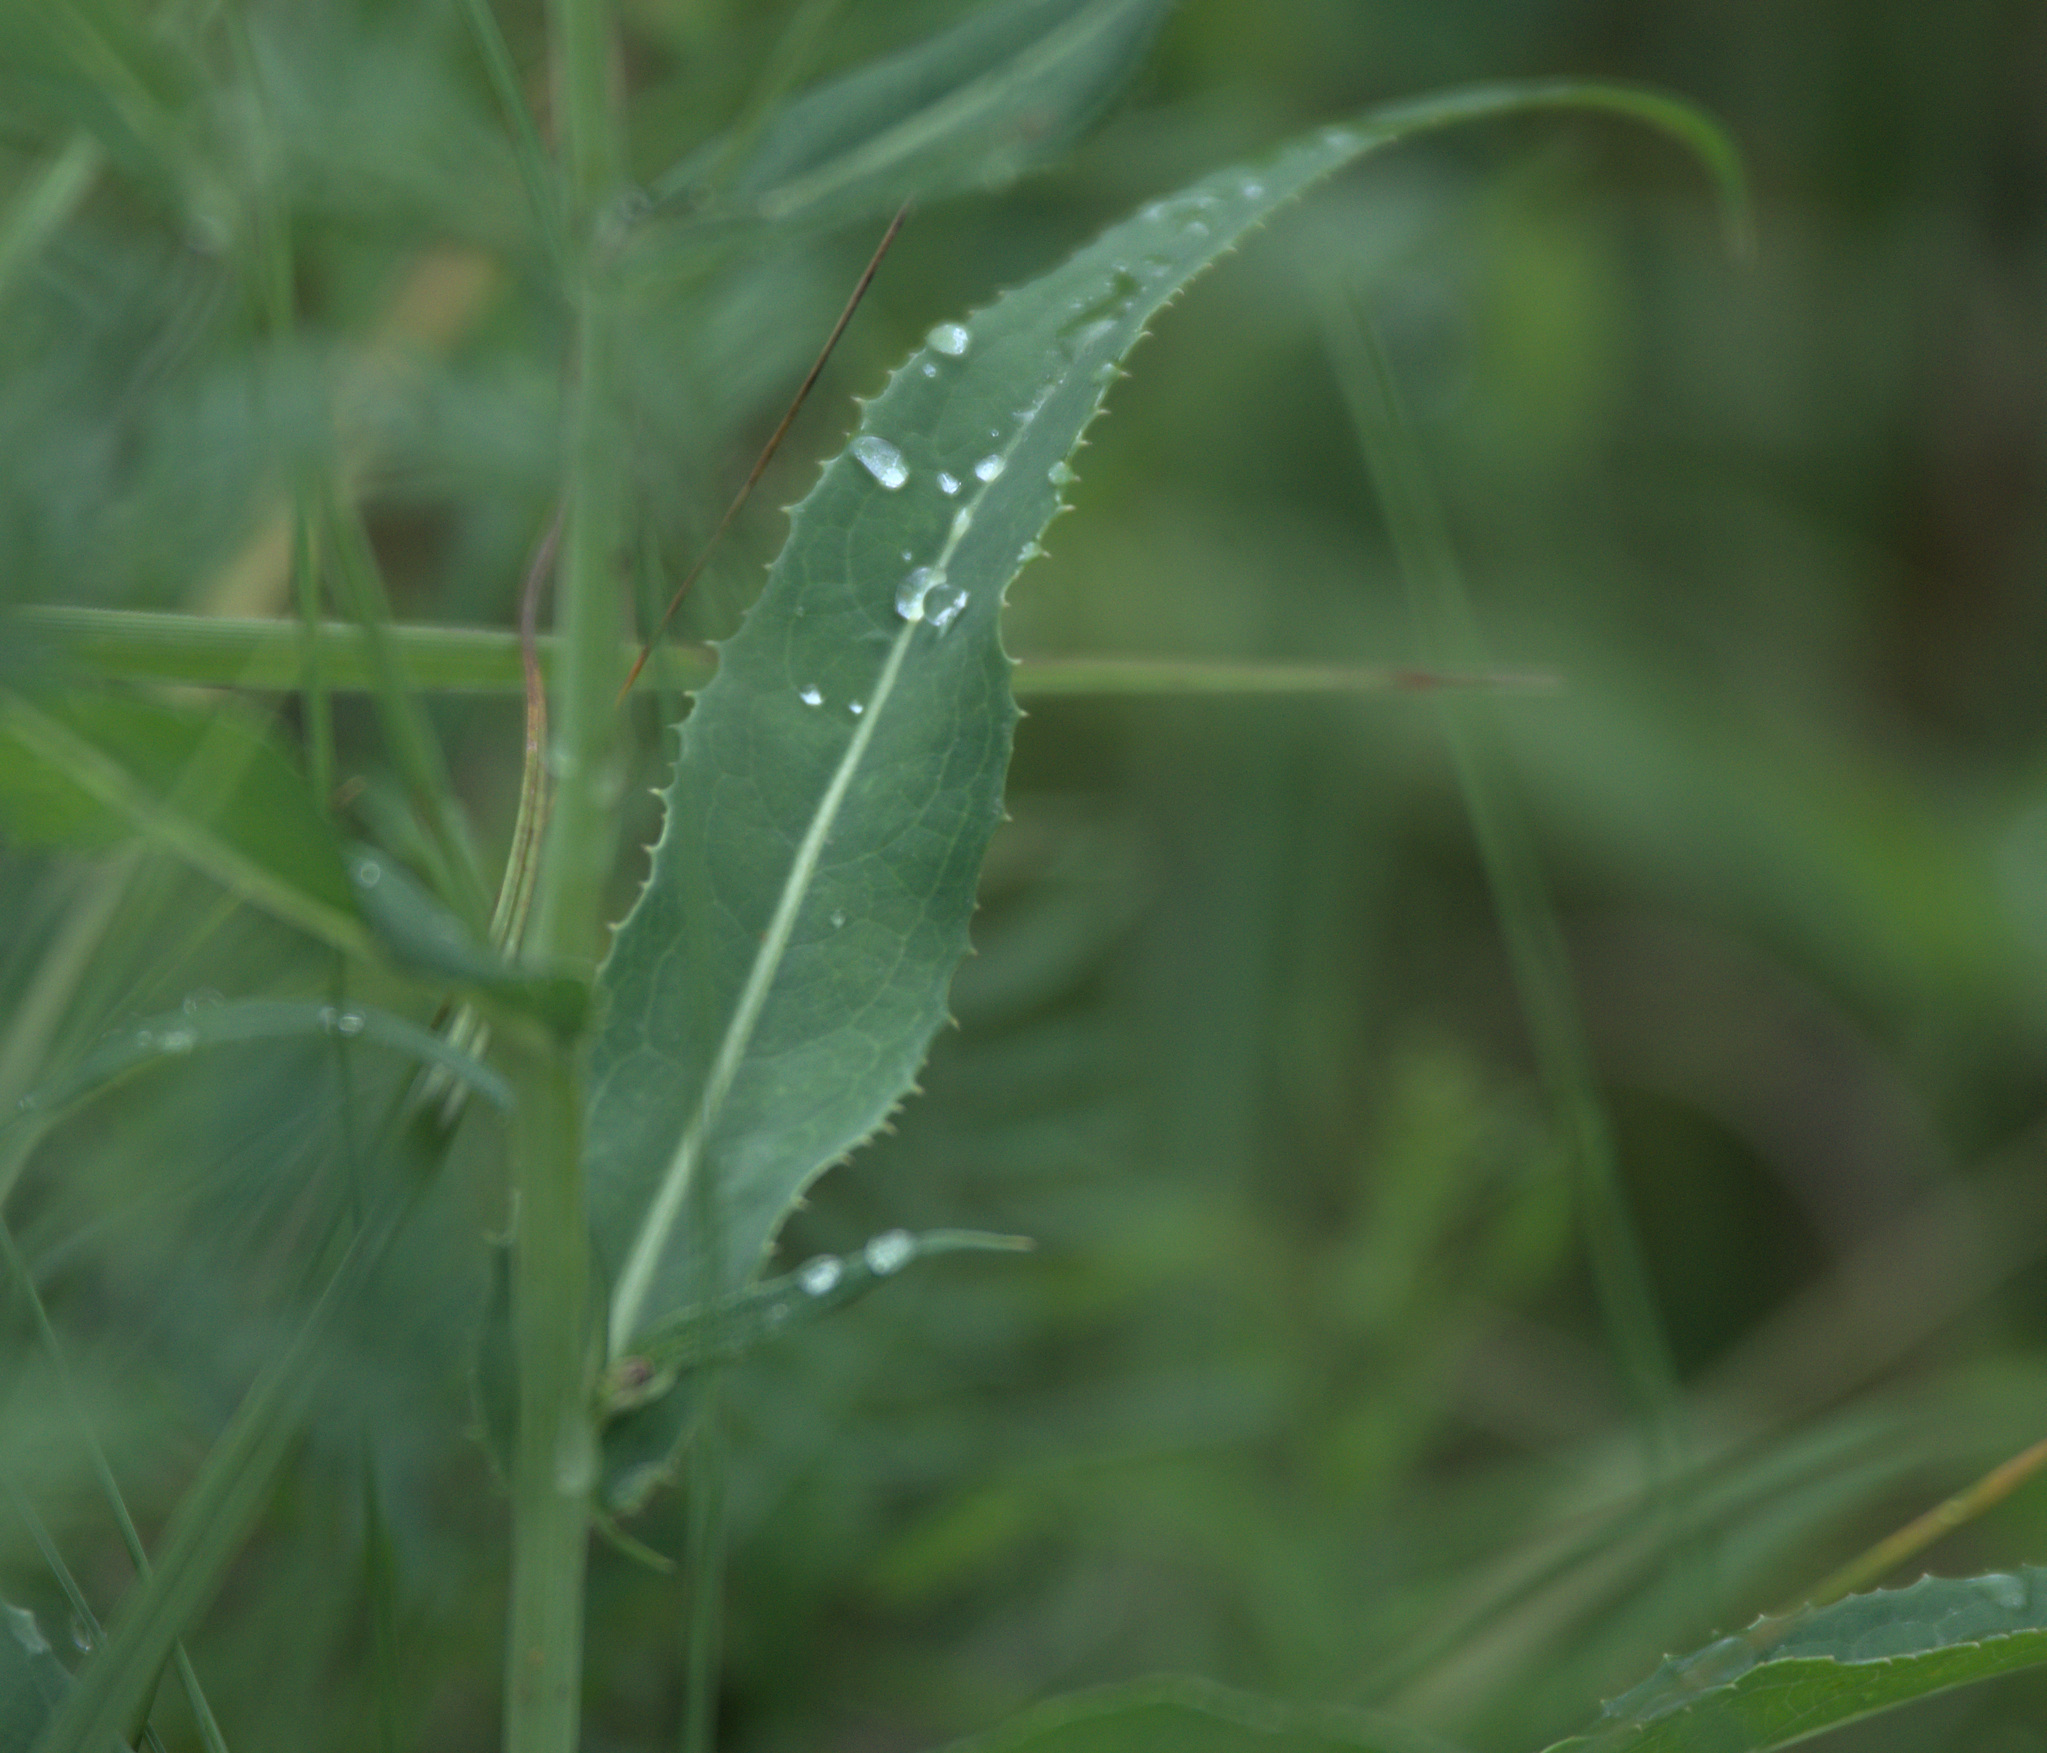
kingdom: Plantae
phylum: Tracheophyta
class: Magnoliopsida
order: Asterales
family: Asteraceae
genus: Lactuca
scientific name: Lactuca tatarica
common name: Blue lettuce
